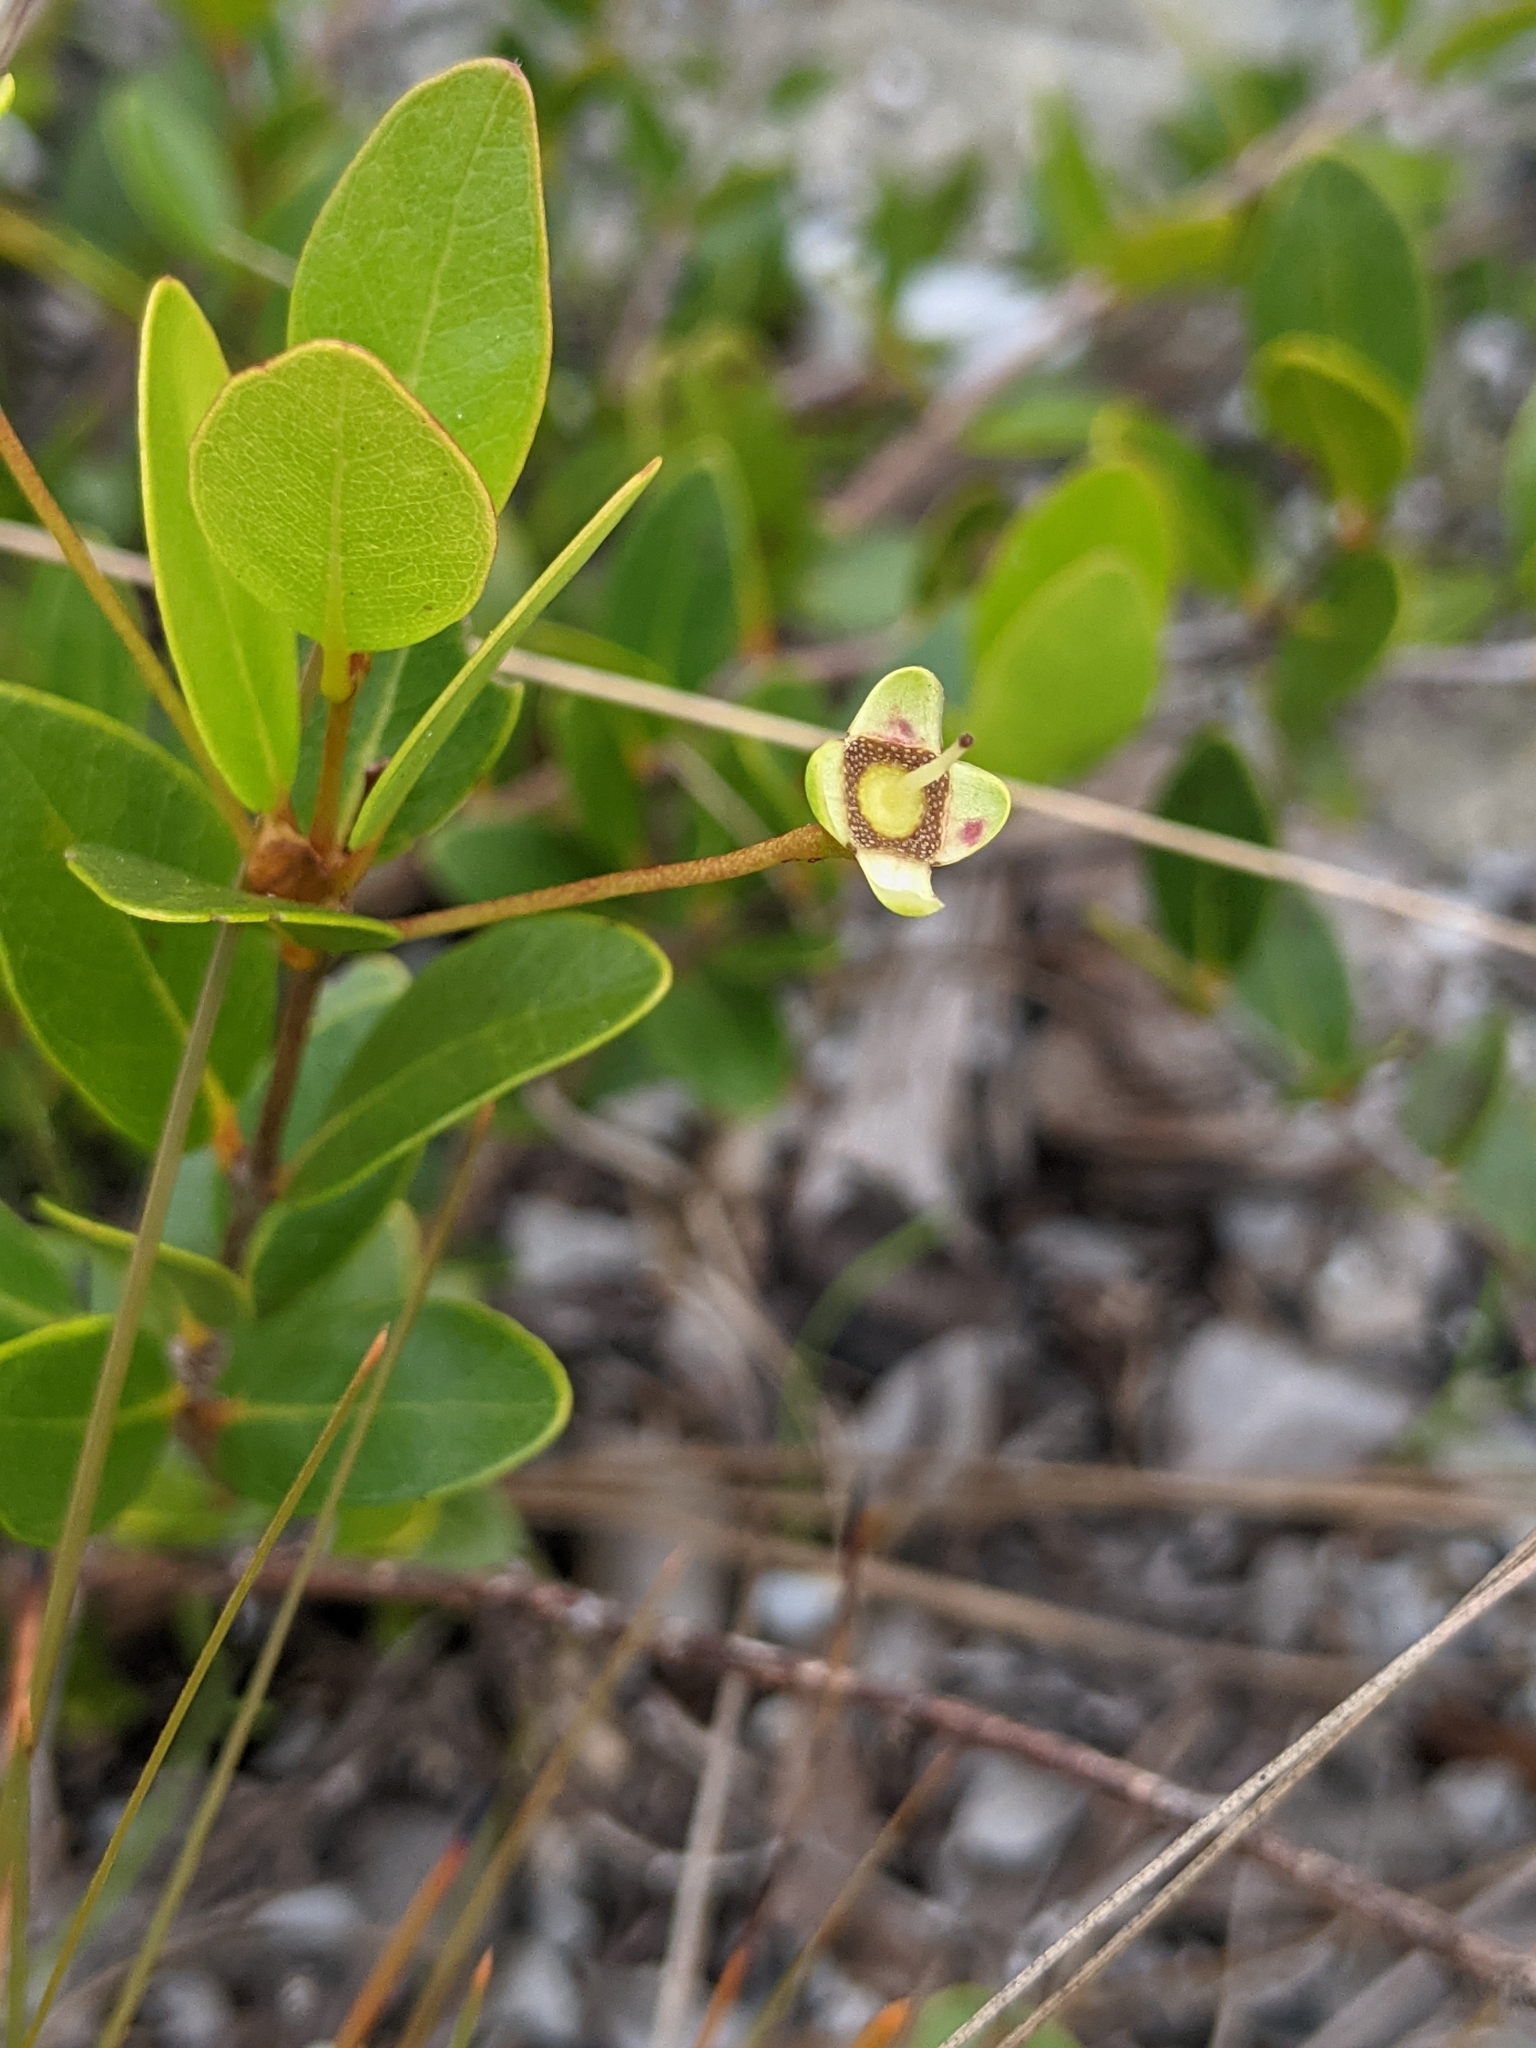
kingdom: Plantae
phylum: Tracheophyta
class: Magnoliopsida
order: Myrtales
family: Myrtaceae
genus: Mosiera
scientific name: Mosiera longipes
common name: Bahama stopper
